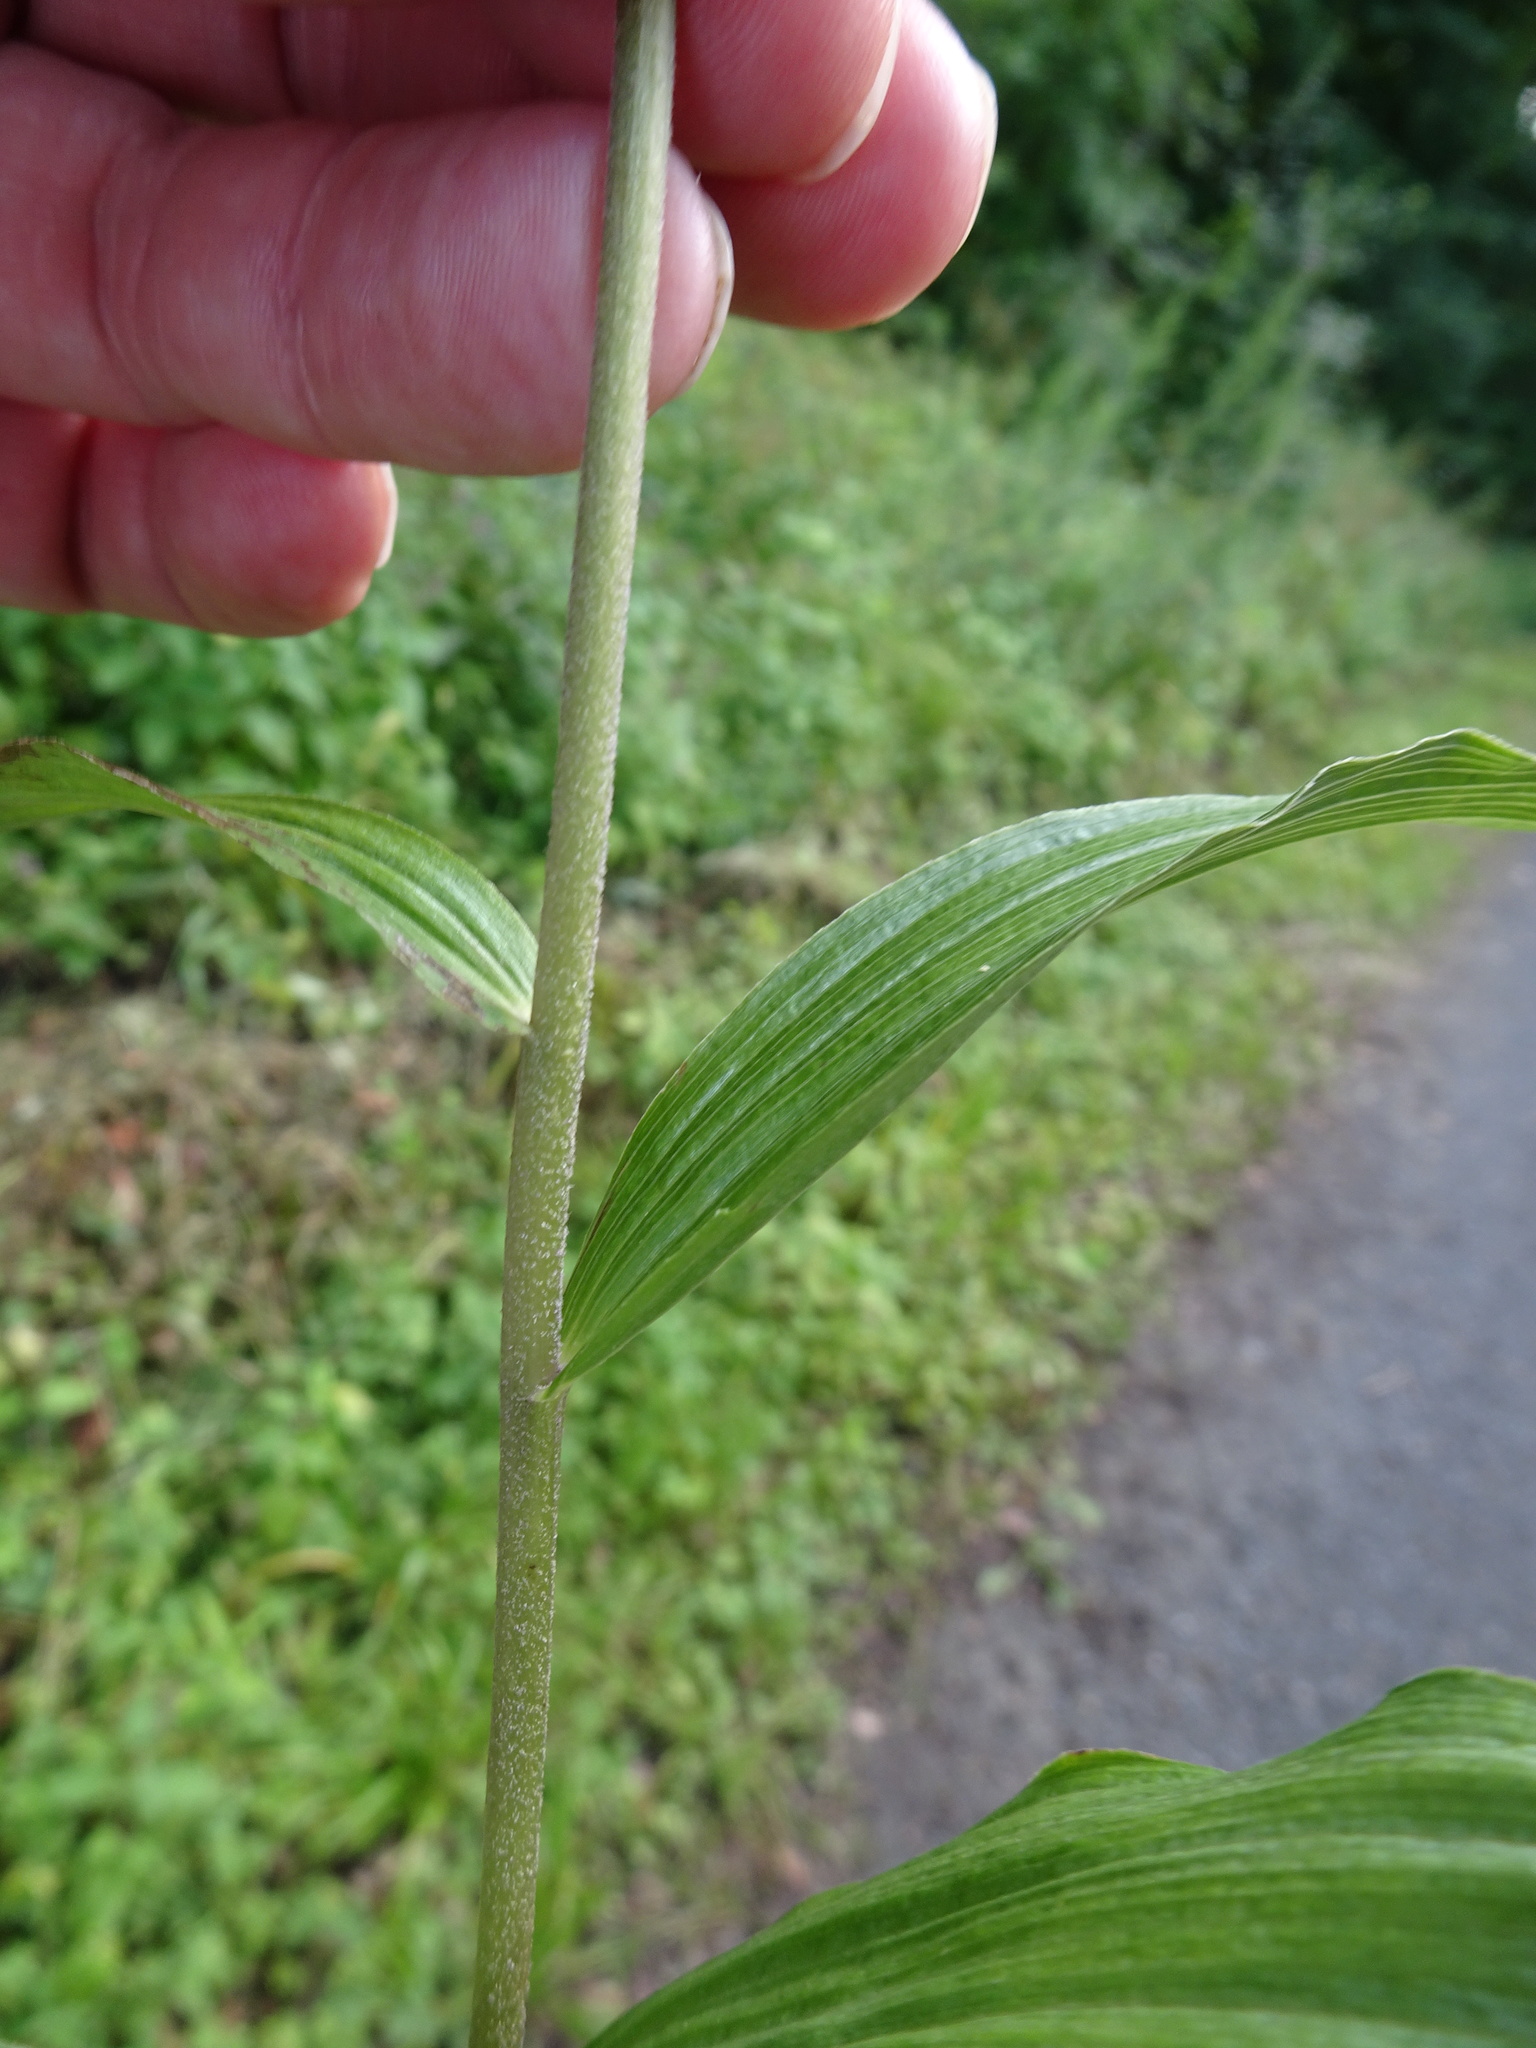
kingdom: Plantae
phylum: Tracheophyta
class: Liliopsida
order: Asparagales
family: Orchidaceae
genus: Epipactis
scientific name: Epipactis helleborine
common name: Broad-leaved helleborine
